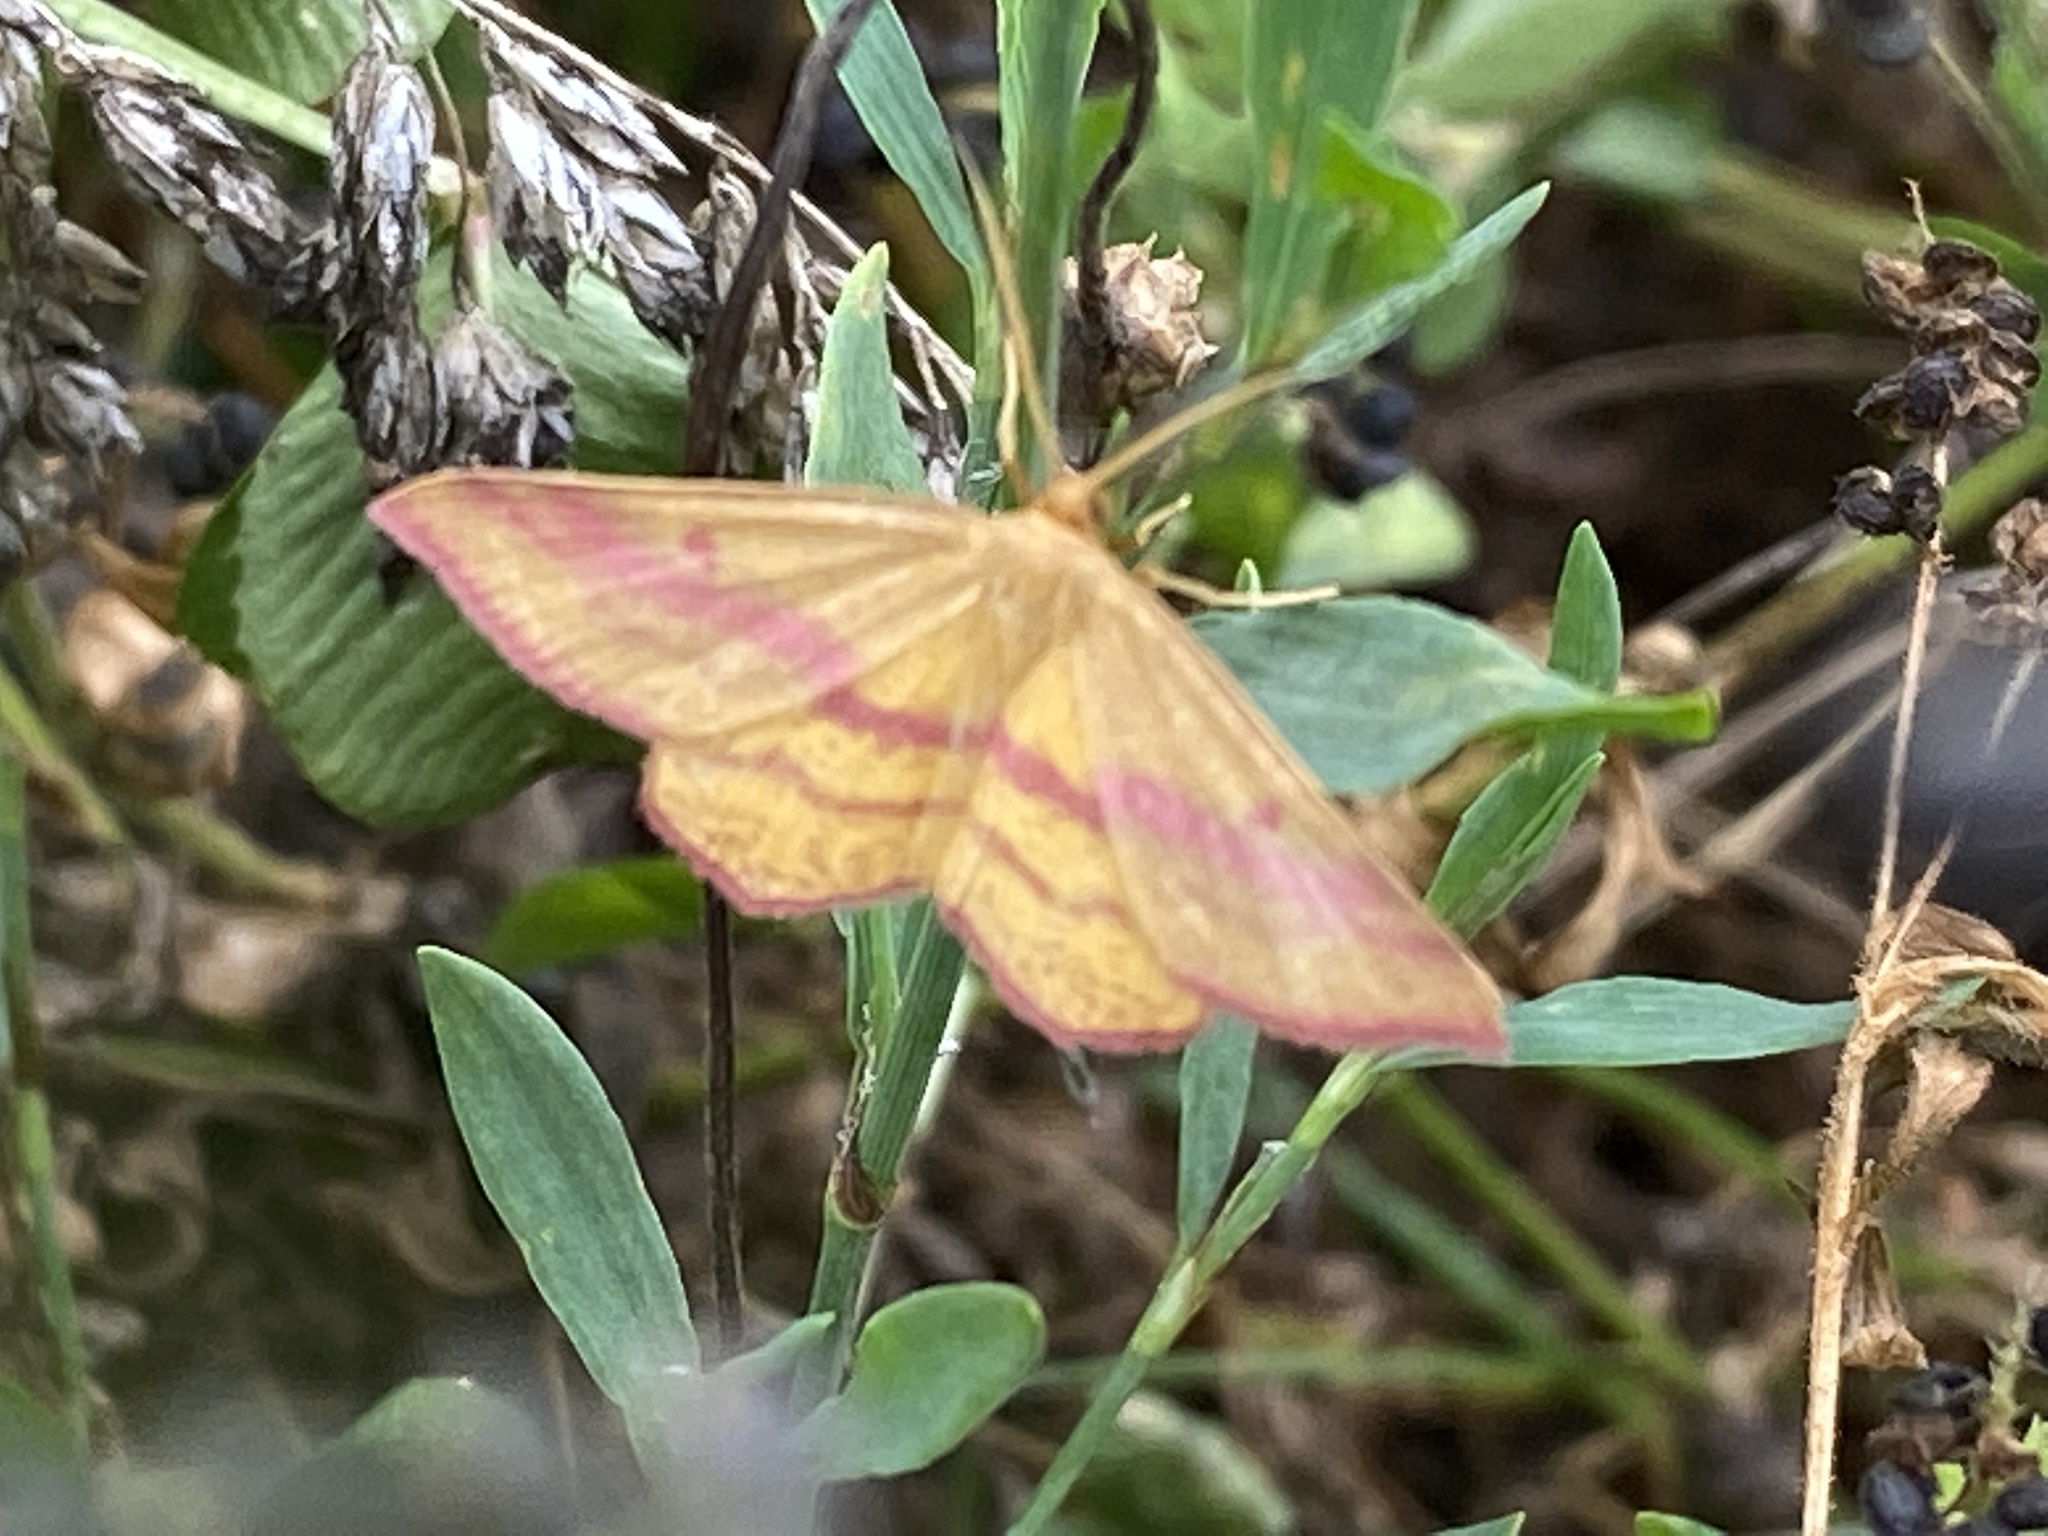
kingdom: Animalia
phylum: Arthropoda
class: Insecta
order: Lepidoptera
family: Geometridae
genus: Haematopis
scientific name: Haematopis grataria
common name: Chickweed geometer
